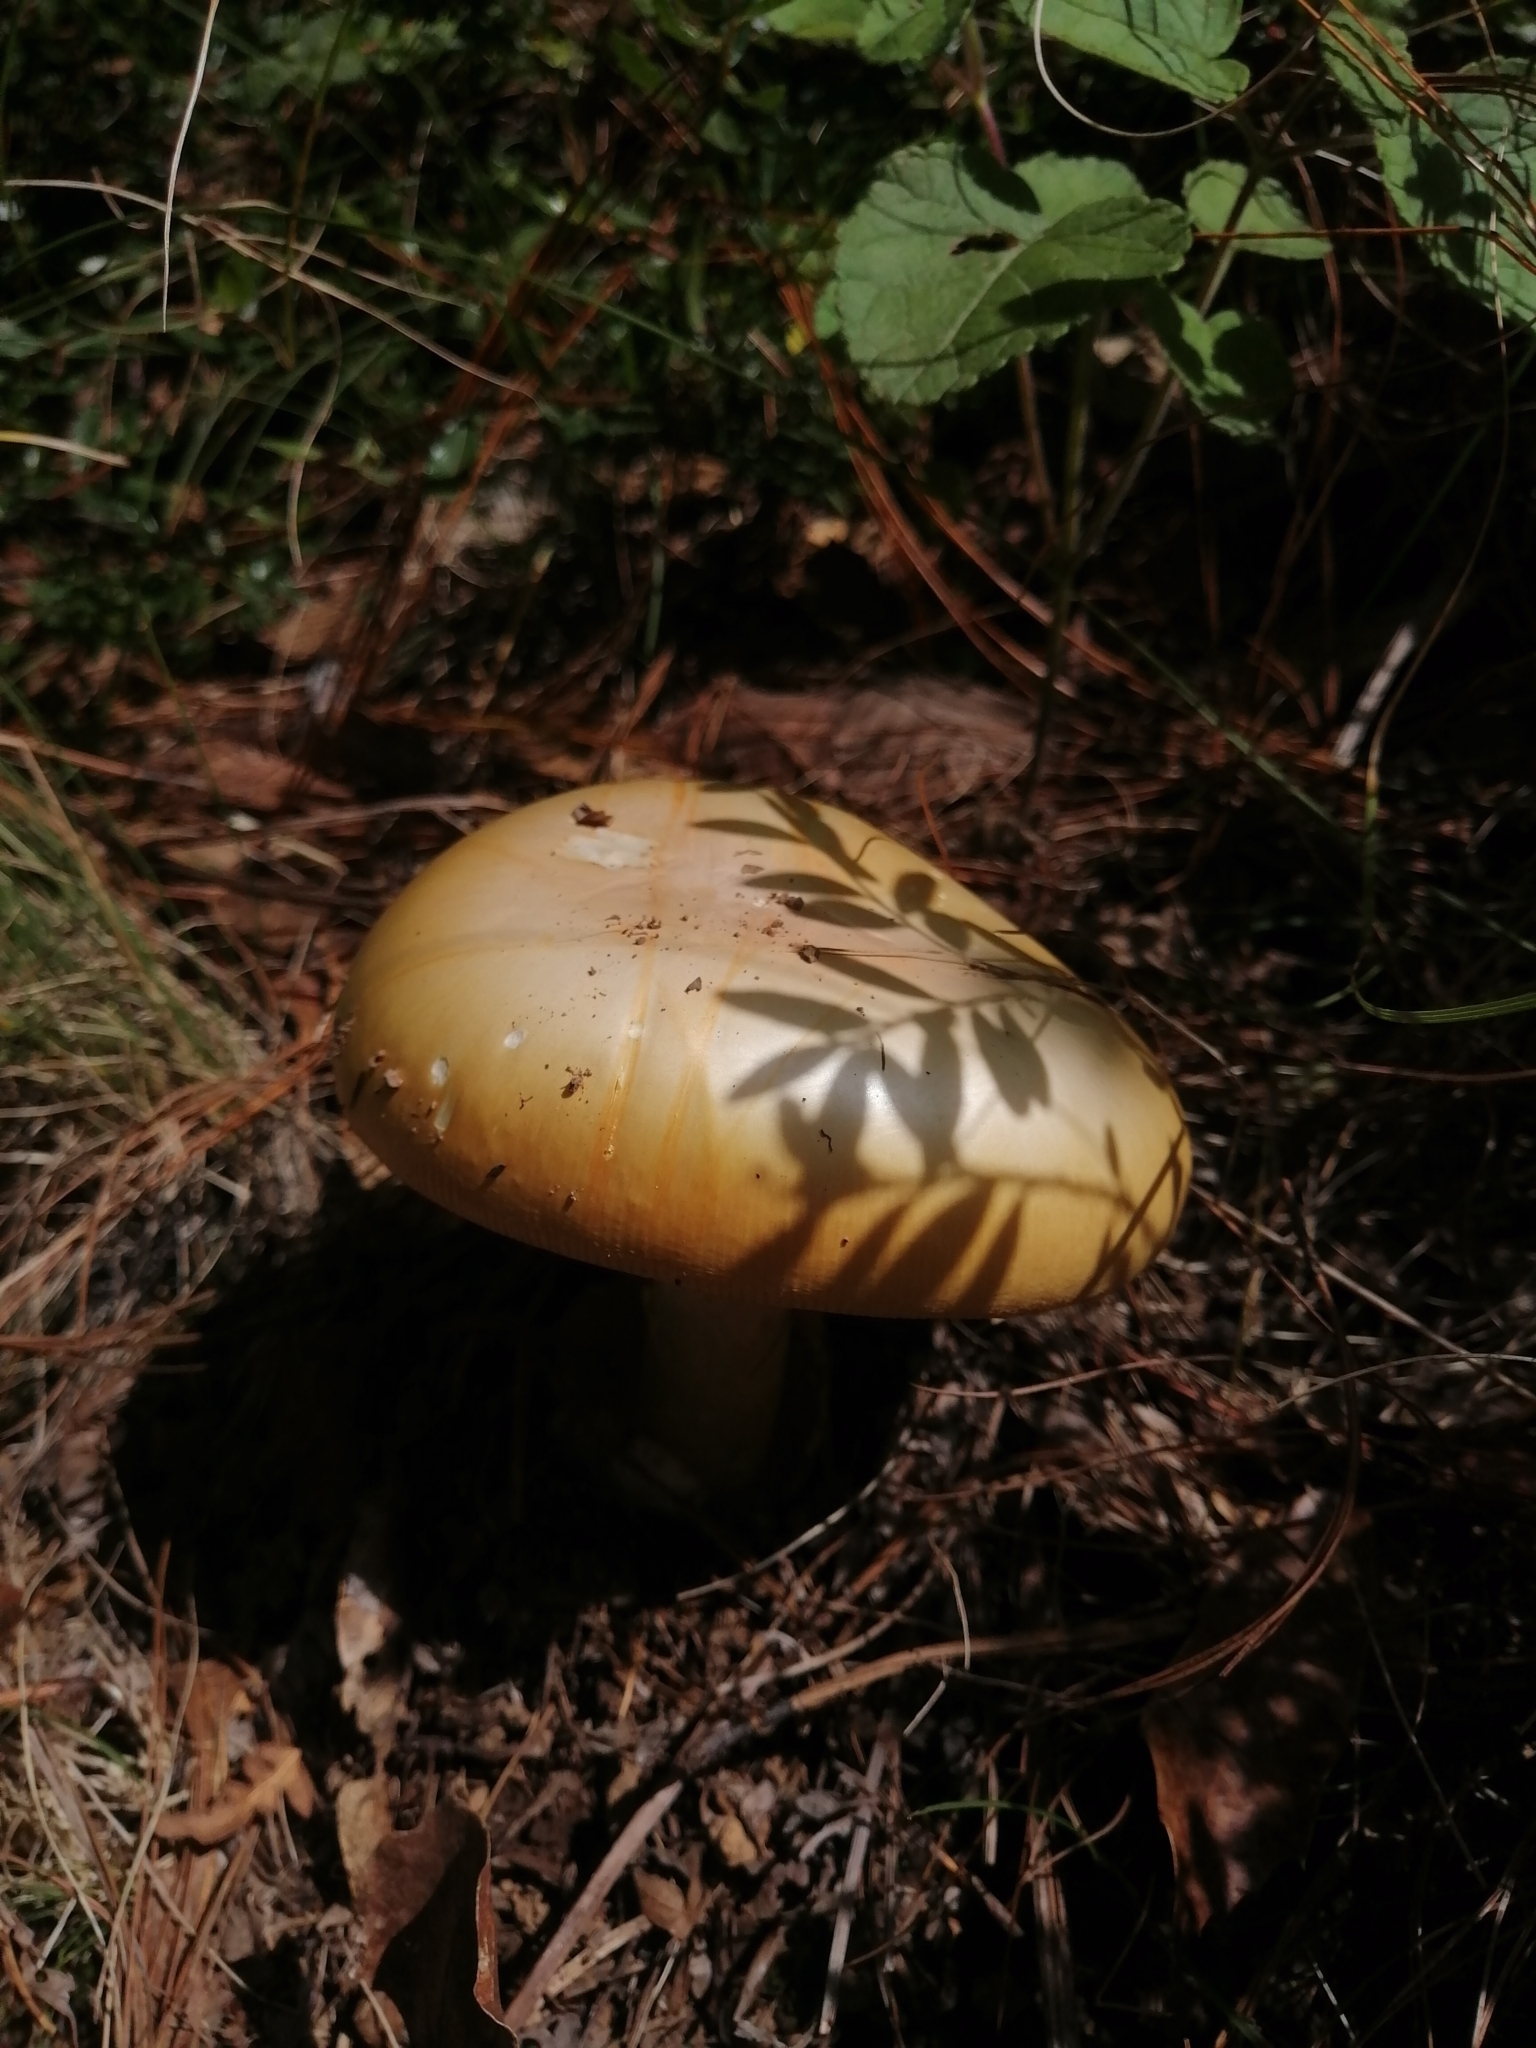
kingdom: Fungi
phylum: Basidiomycota
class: Agaricomycetes
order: Agaricales
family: Amanitaceae
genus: Amanita
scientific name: Amanita basii
